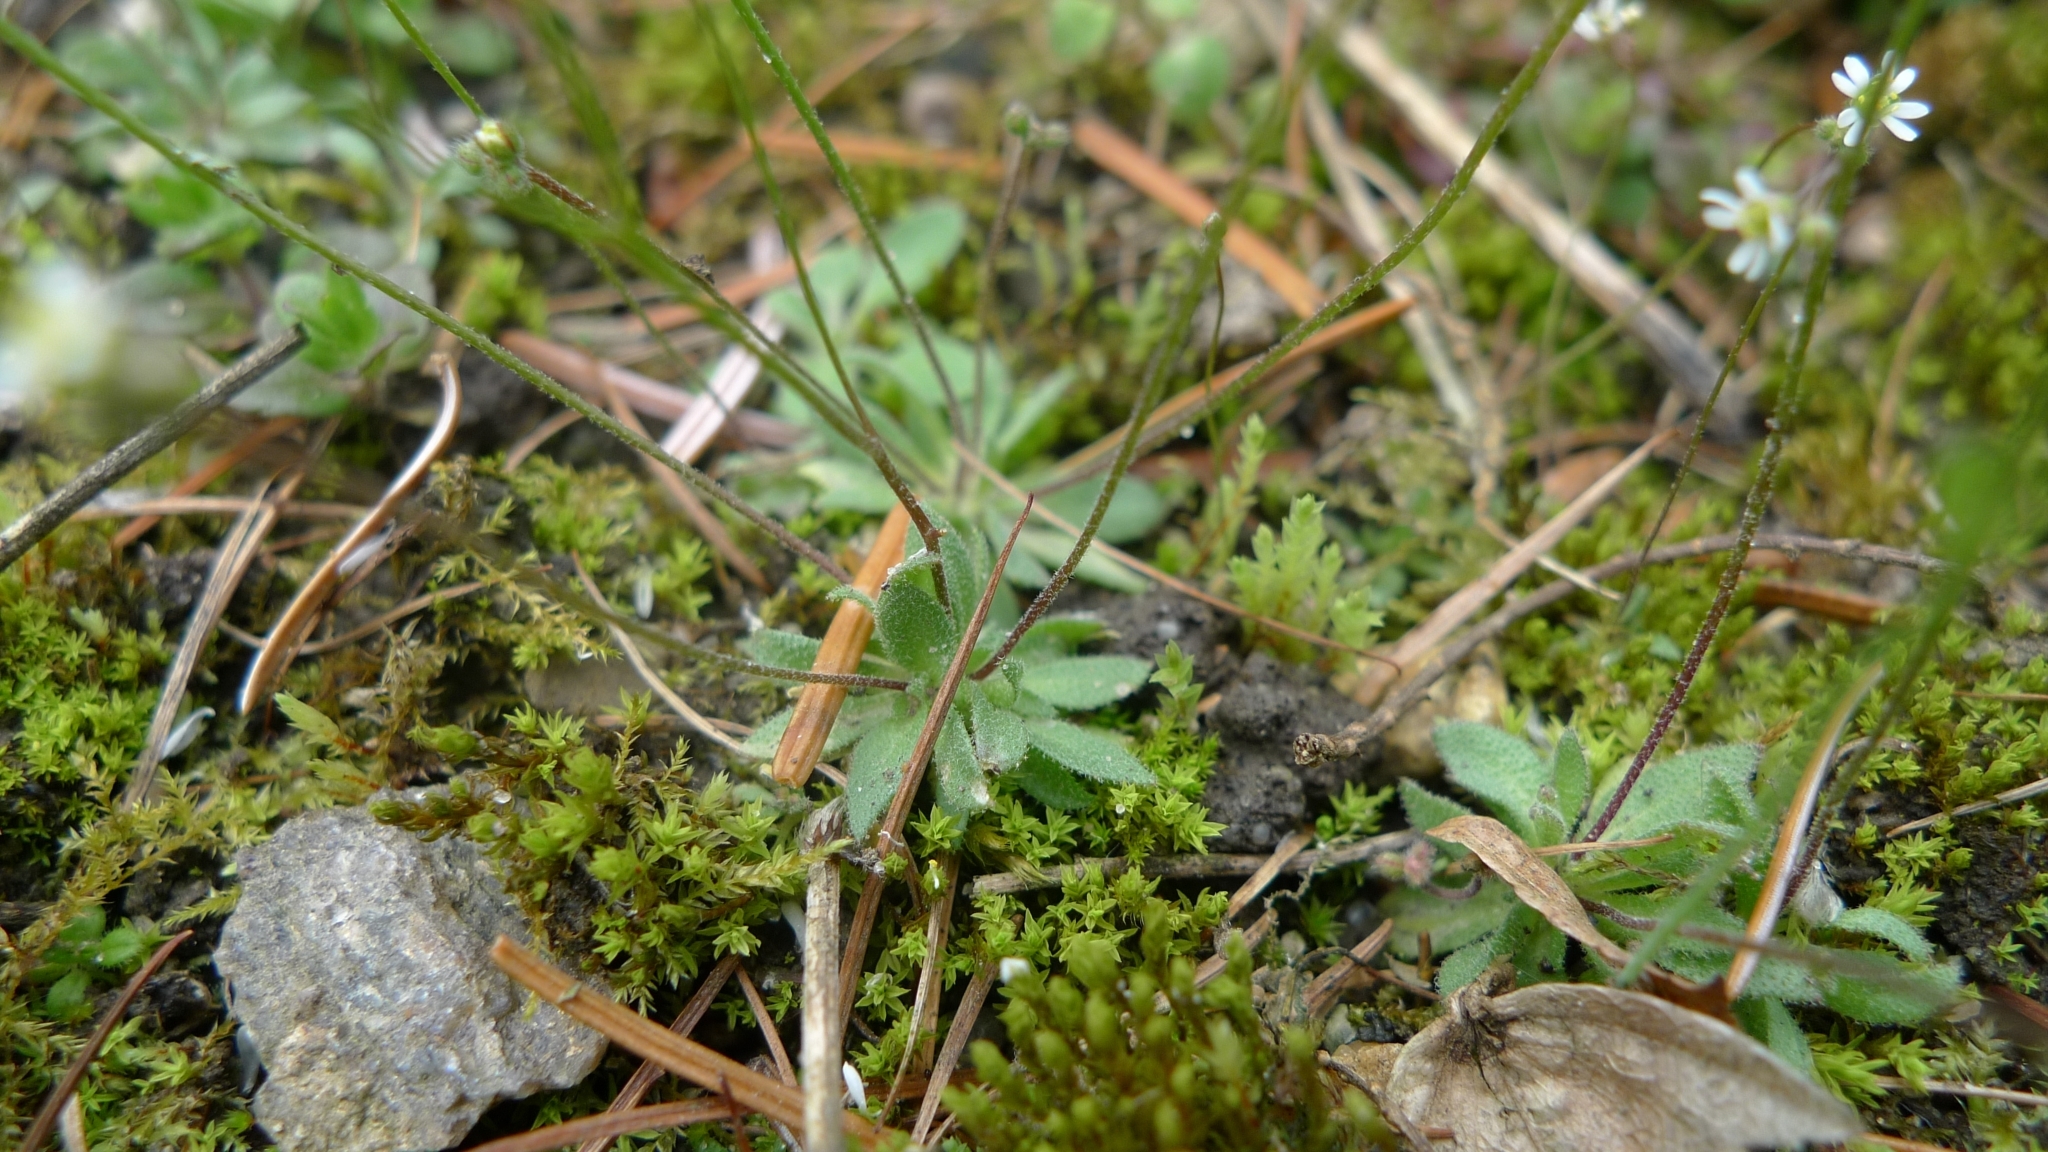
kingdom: Plantae
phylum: Tracheophyta
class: Magnoliopsida
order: Brassicales
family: Brassicaceae
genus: Draba
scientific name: Draba verna
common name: Spring draba
